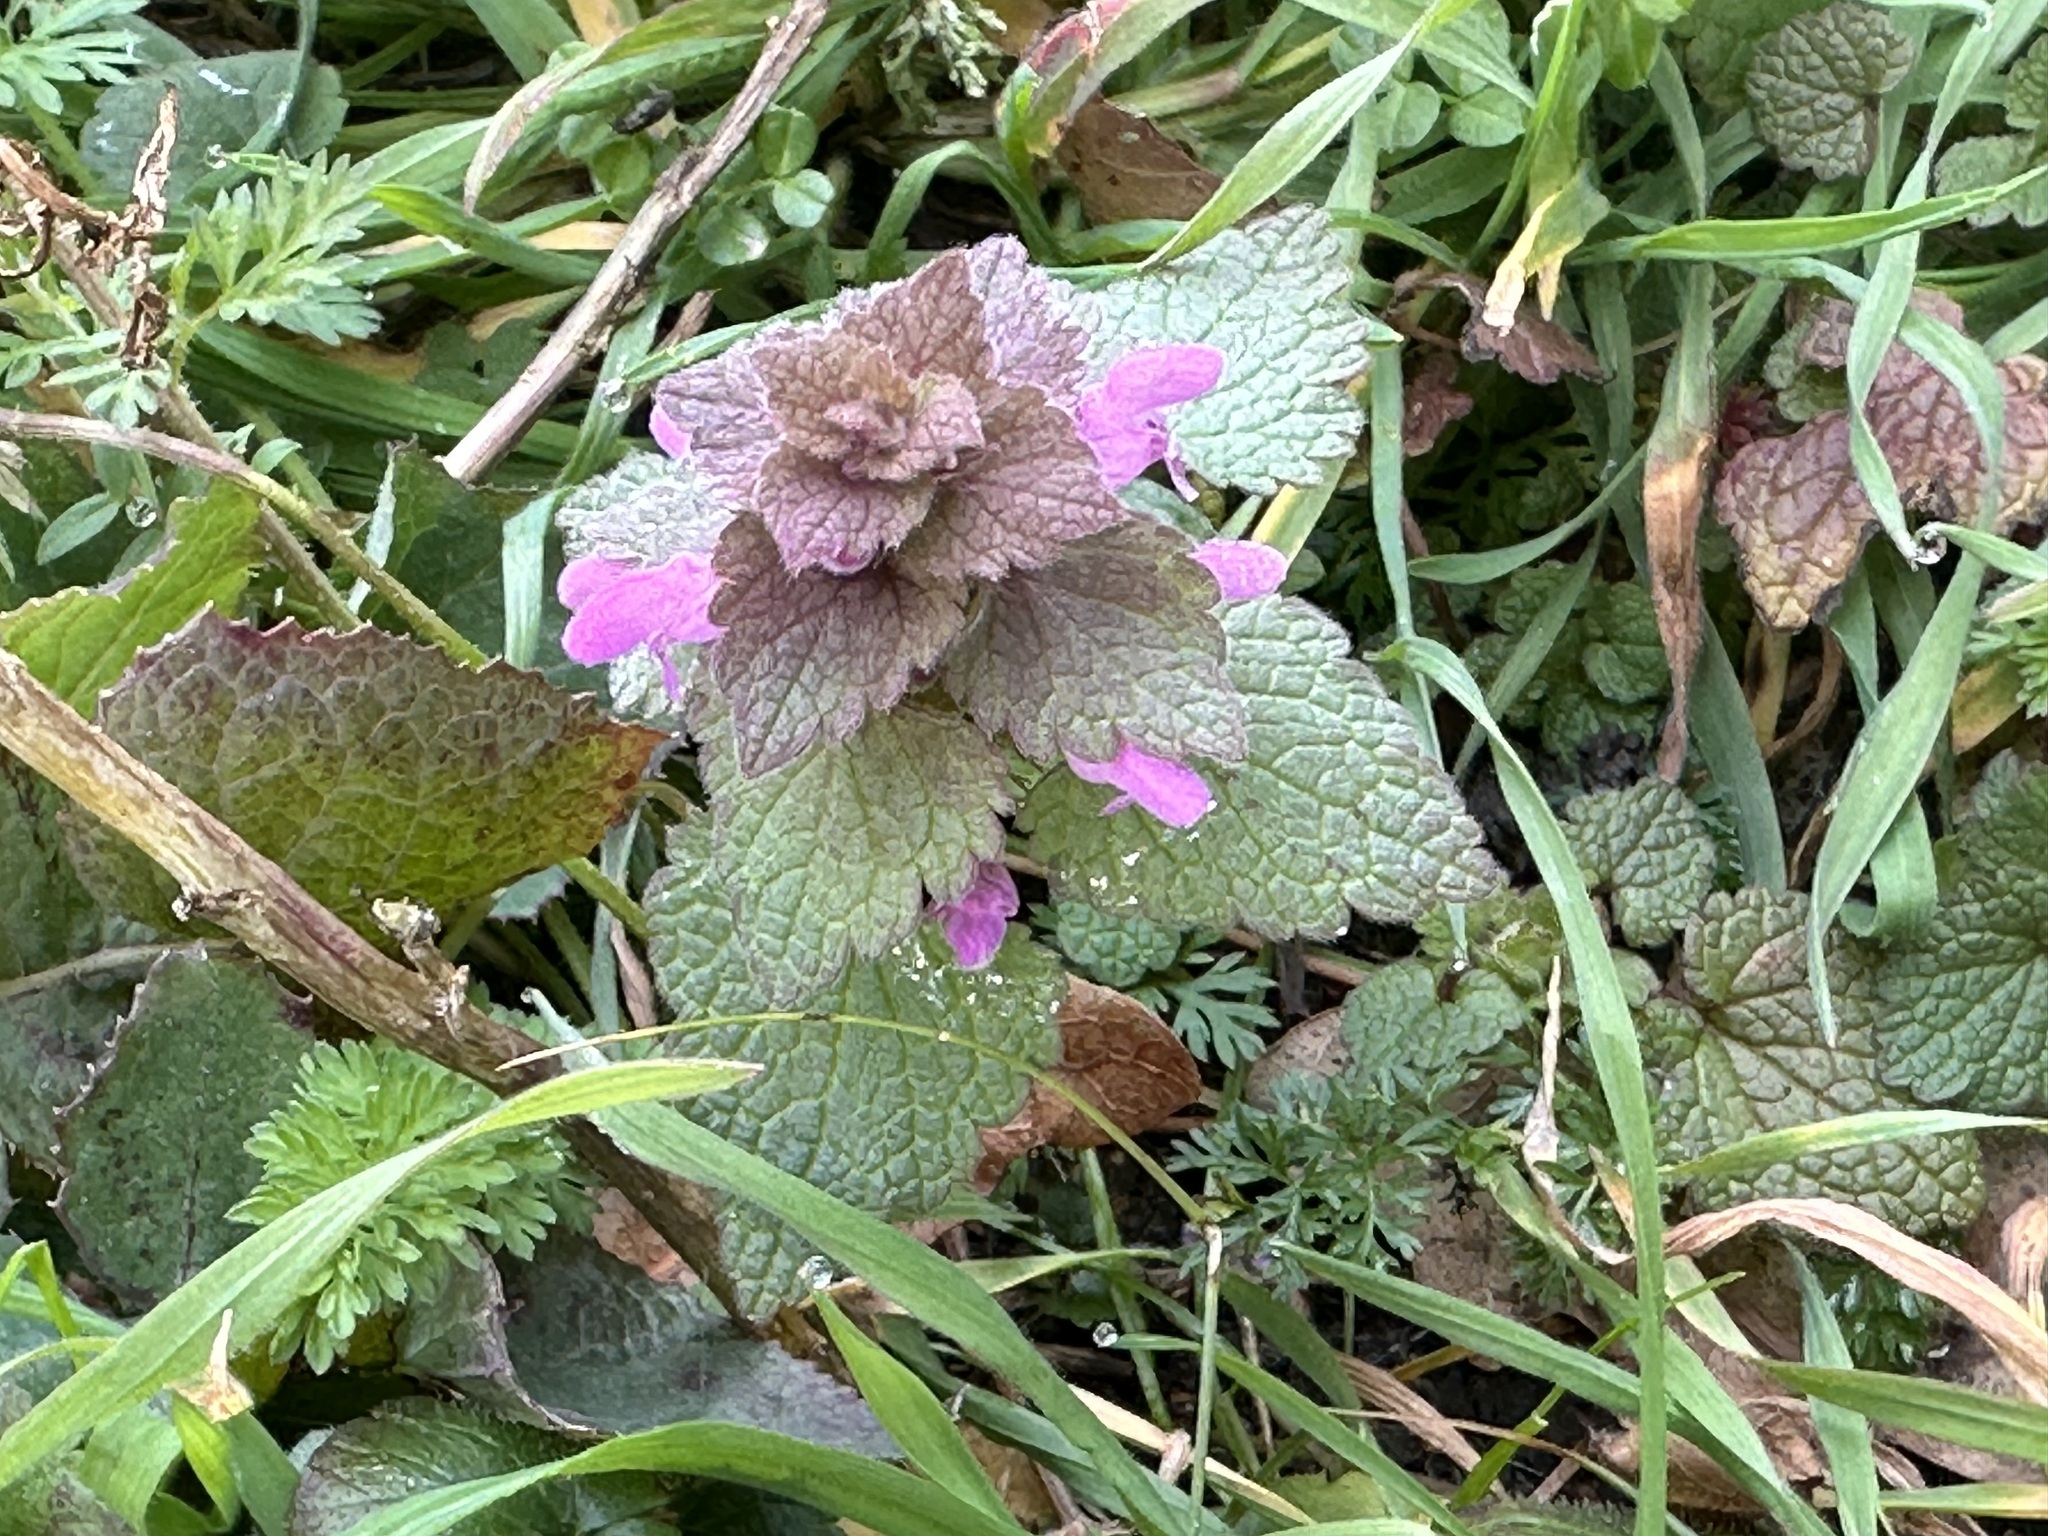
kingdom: Plantae
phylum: Tracheophyta
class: Magnoliopsida
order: Lamiales
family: Lamiaceae
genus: Lamium
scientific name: Lamium purpureum
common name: Red dead-nettle
